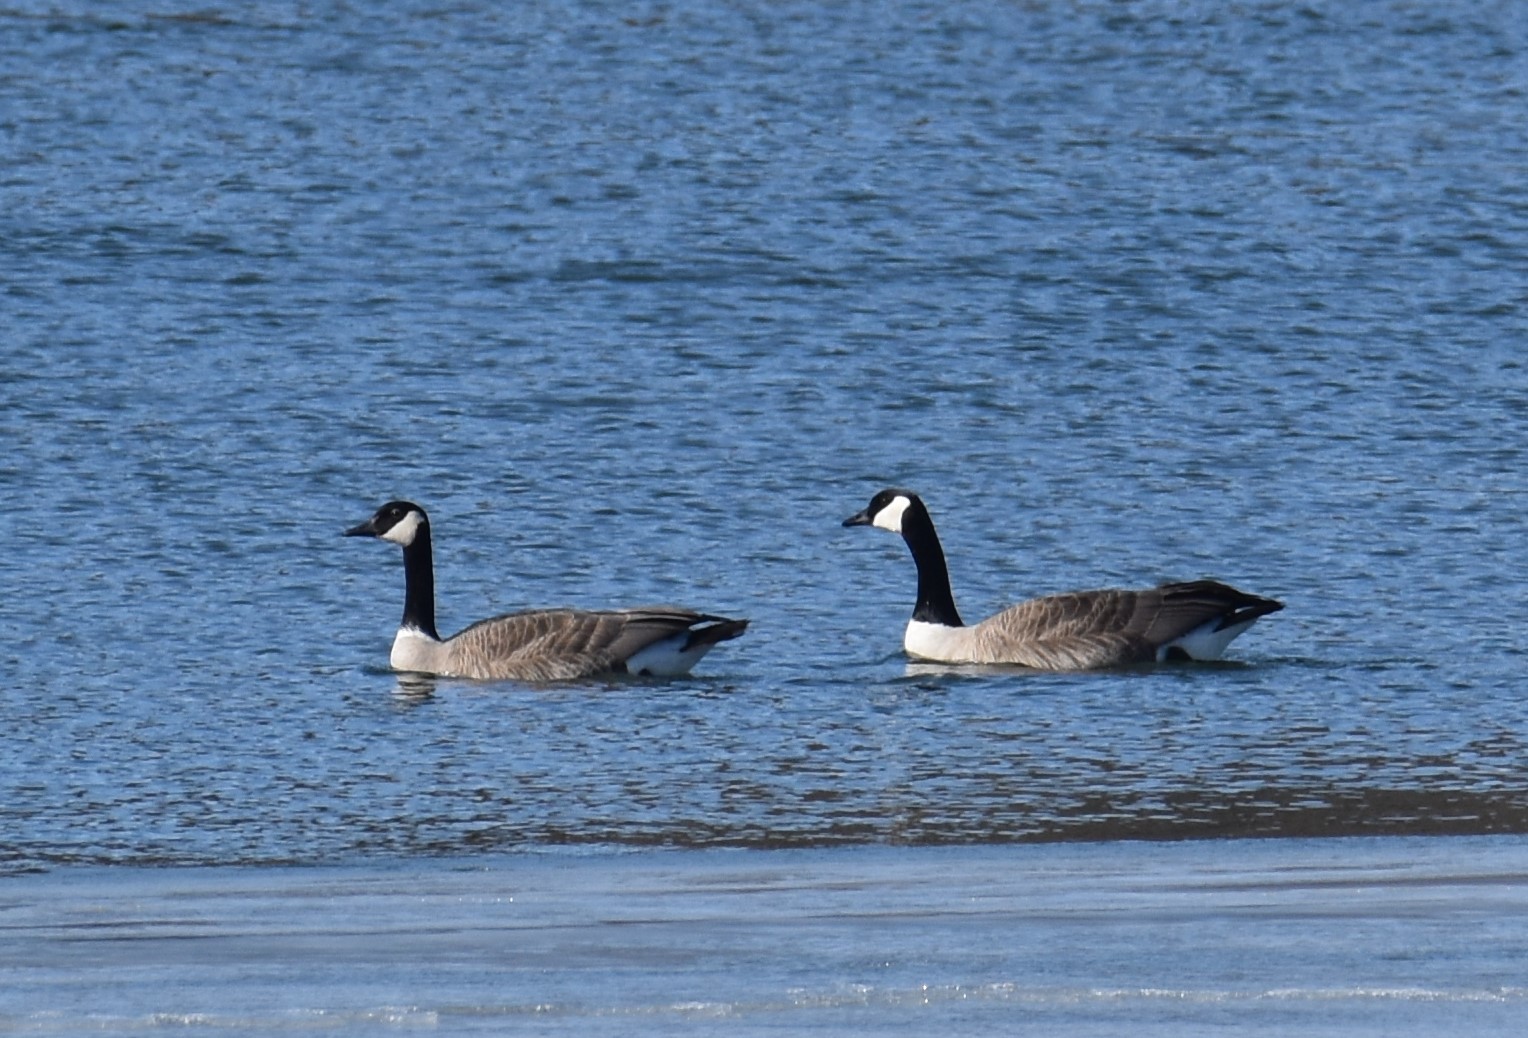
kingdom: Animalia
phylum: Chordata
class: Aves
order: Anseriformes
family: Anatidae
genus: Branta
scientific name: Branta canadensis
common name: Canada goose
